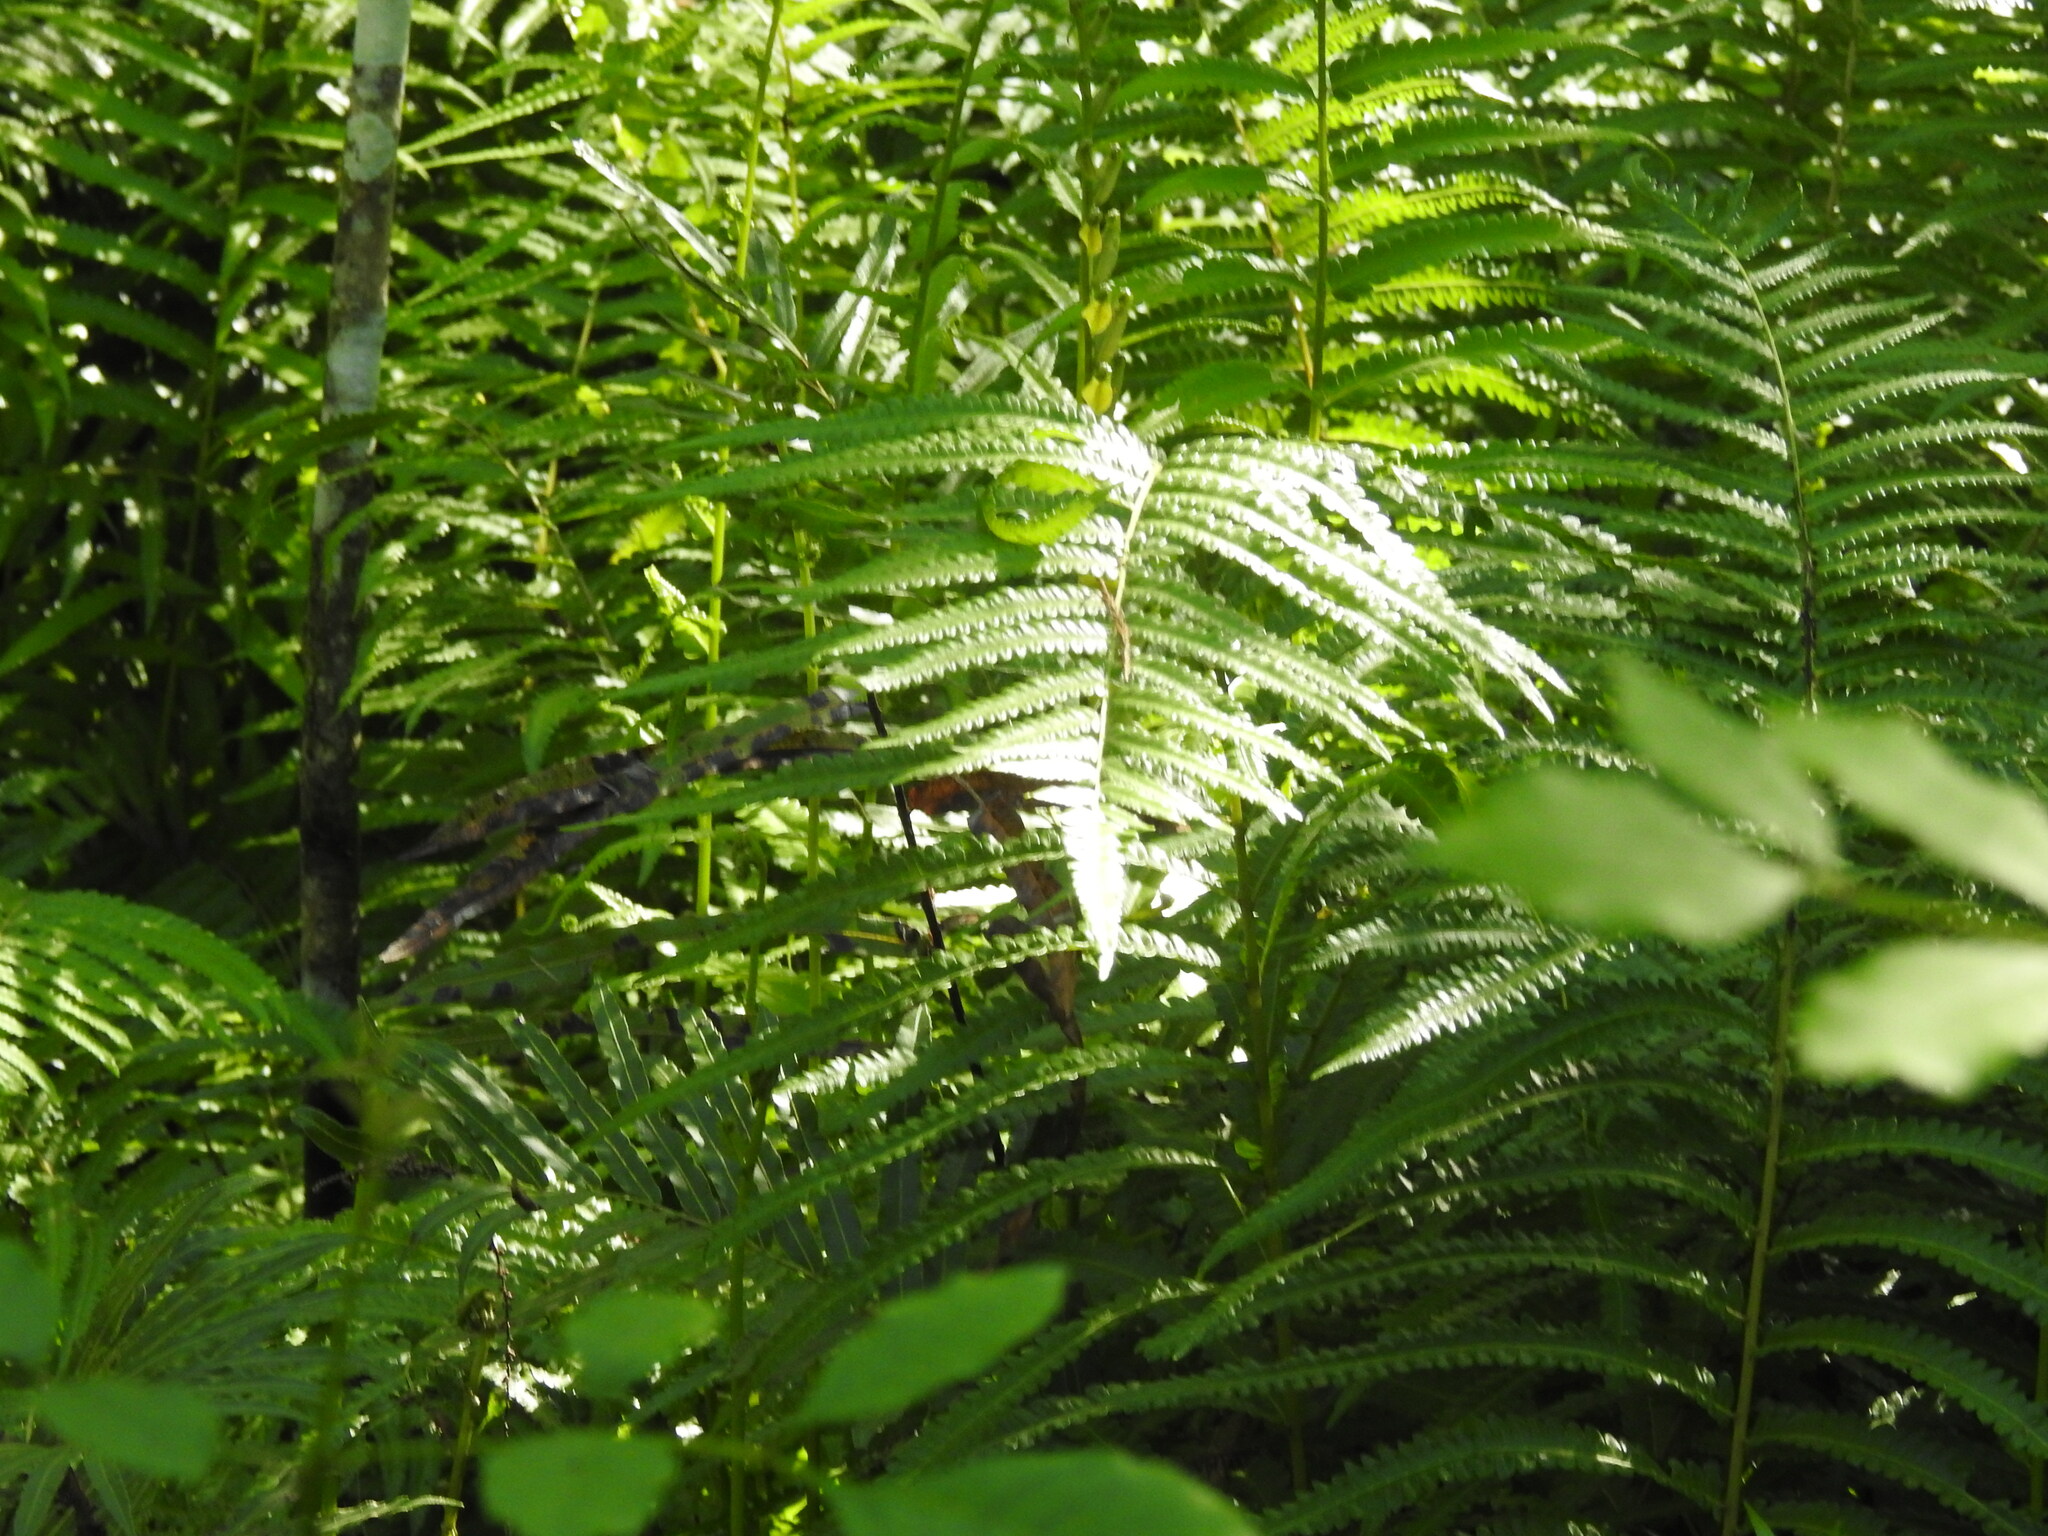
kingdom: Plantae
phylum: Tracheophyta
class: Polypodiopsida
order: Polypodiales
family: Thelypteridaceae
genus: Cyclosorus
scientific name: Cyclosorus interruptus
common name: Neke fern
